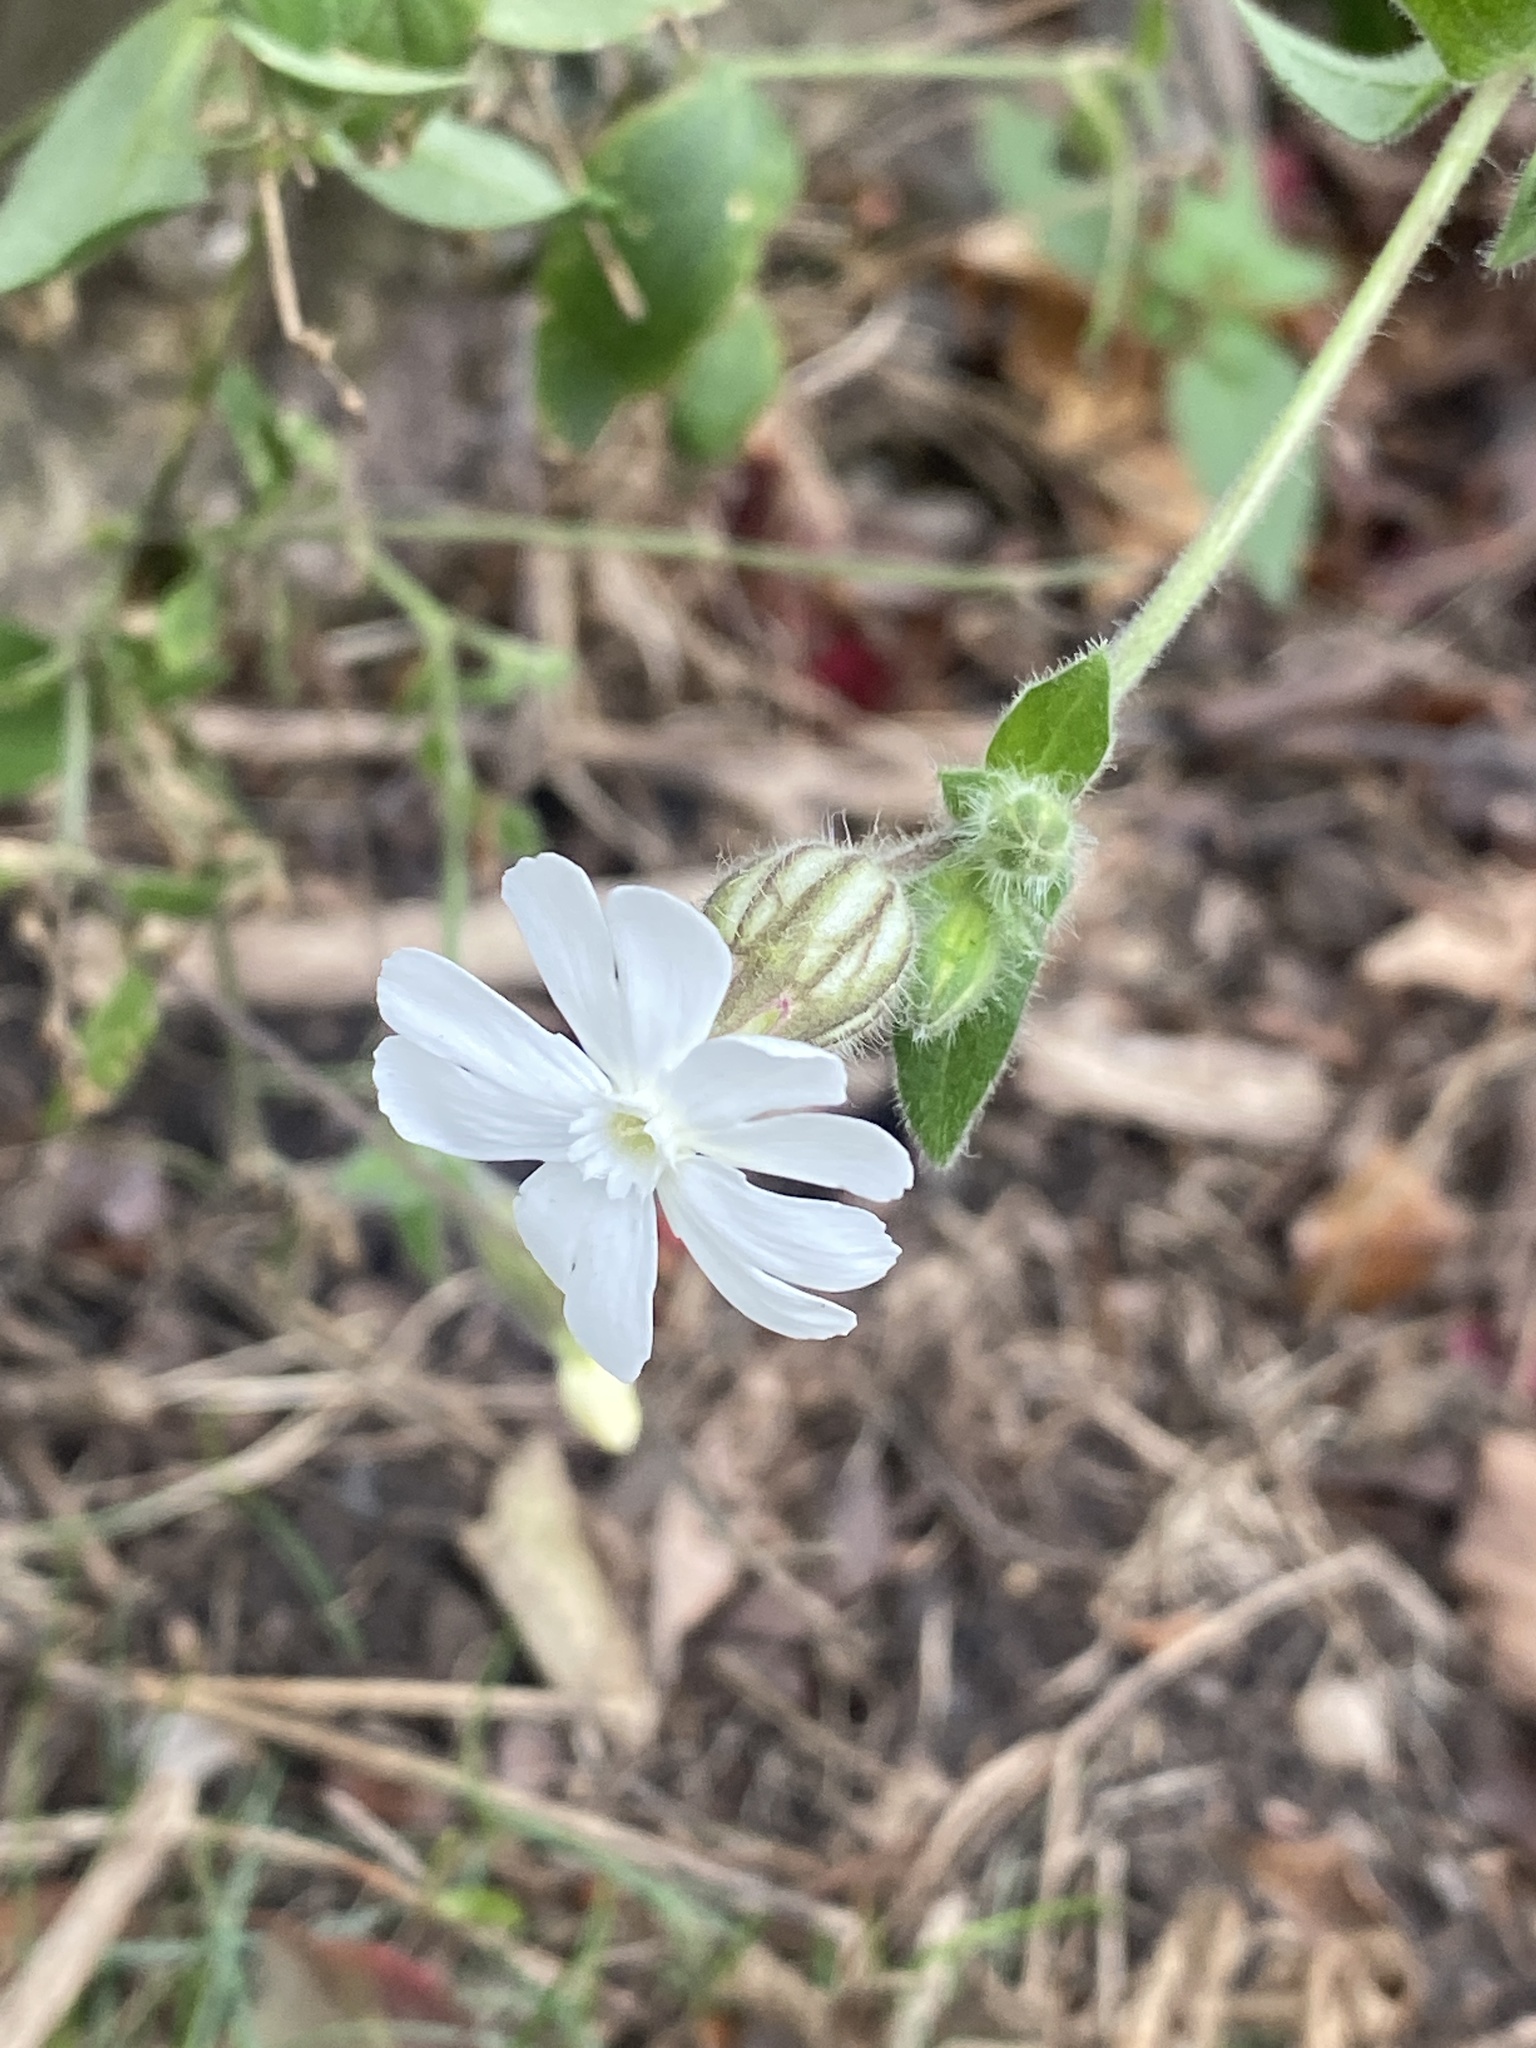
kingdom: Plantae
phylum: Tracheophyta
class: Magnoliopsida
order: Caryophyllales
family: Caryophyllaceae
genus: Silene
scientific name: Silene latifolia
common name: White campion
